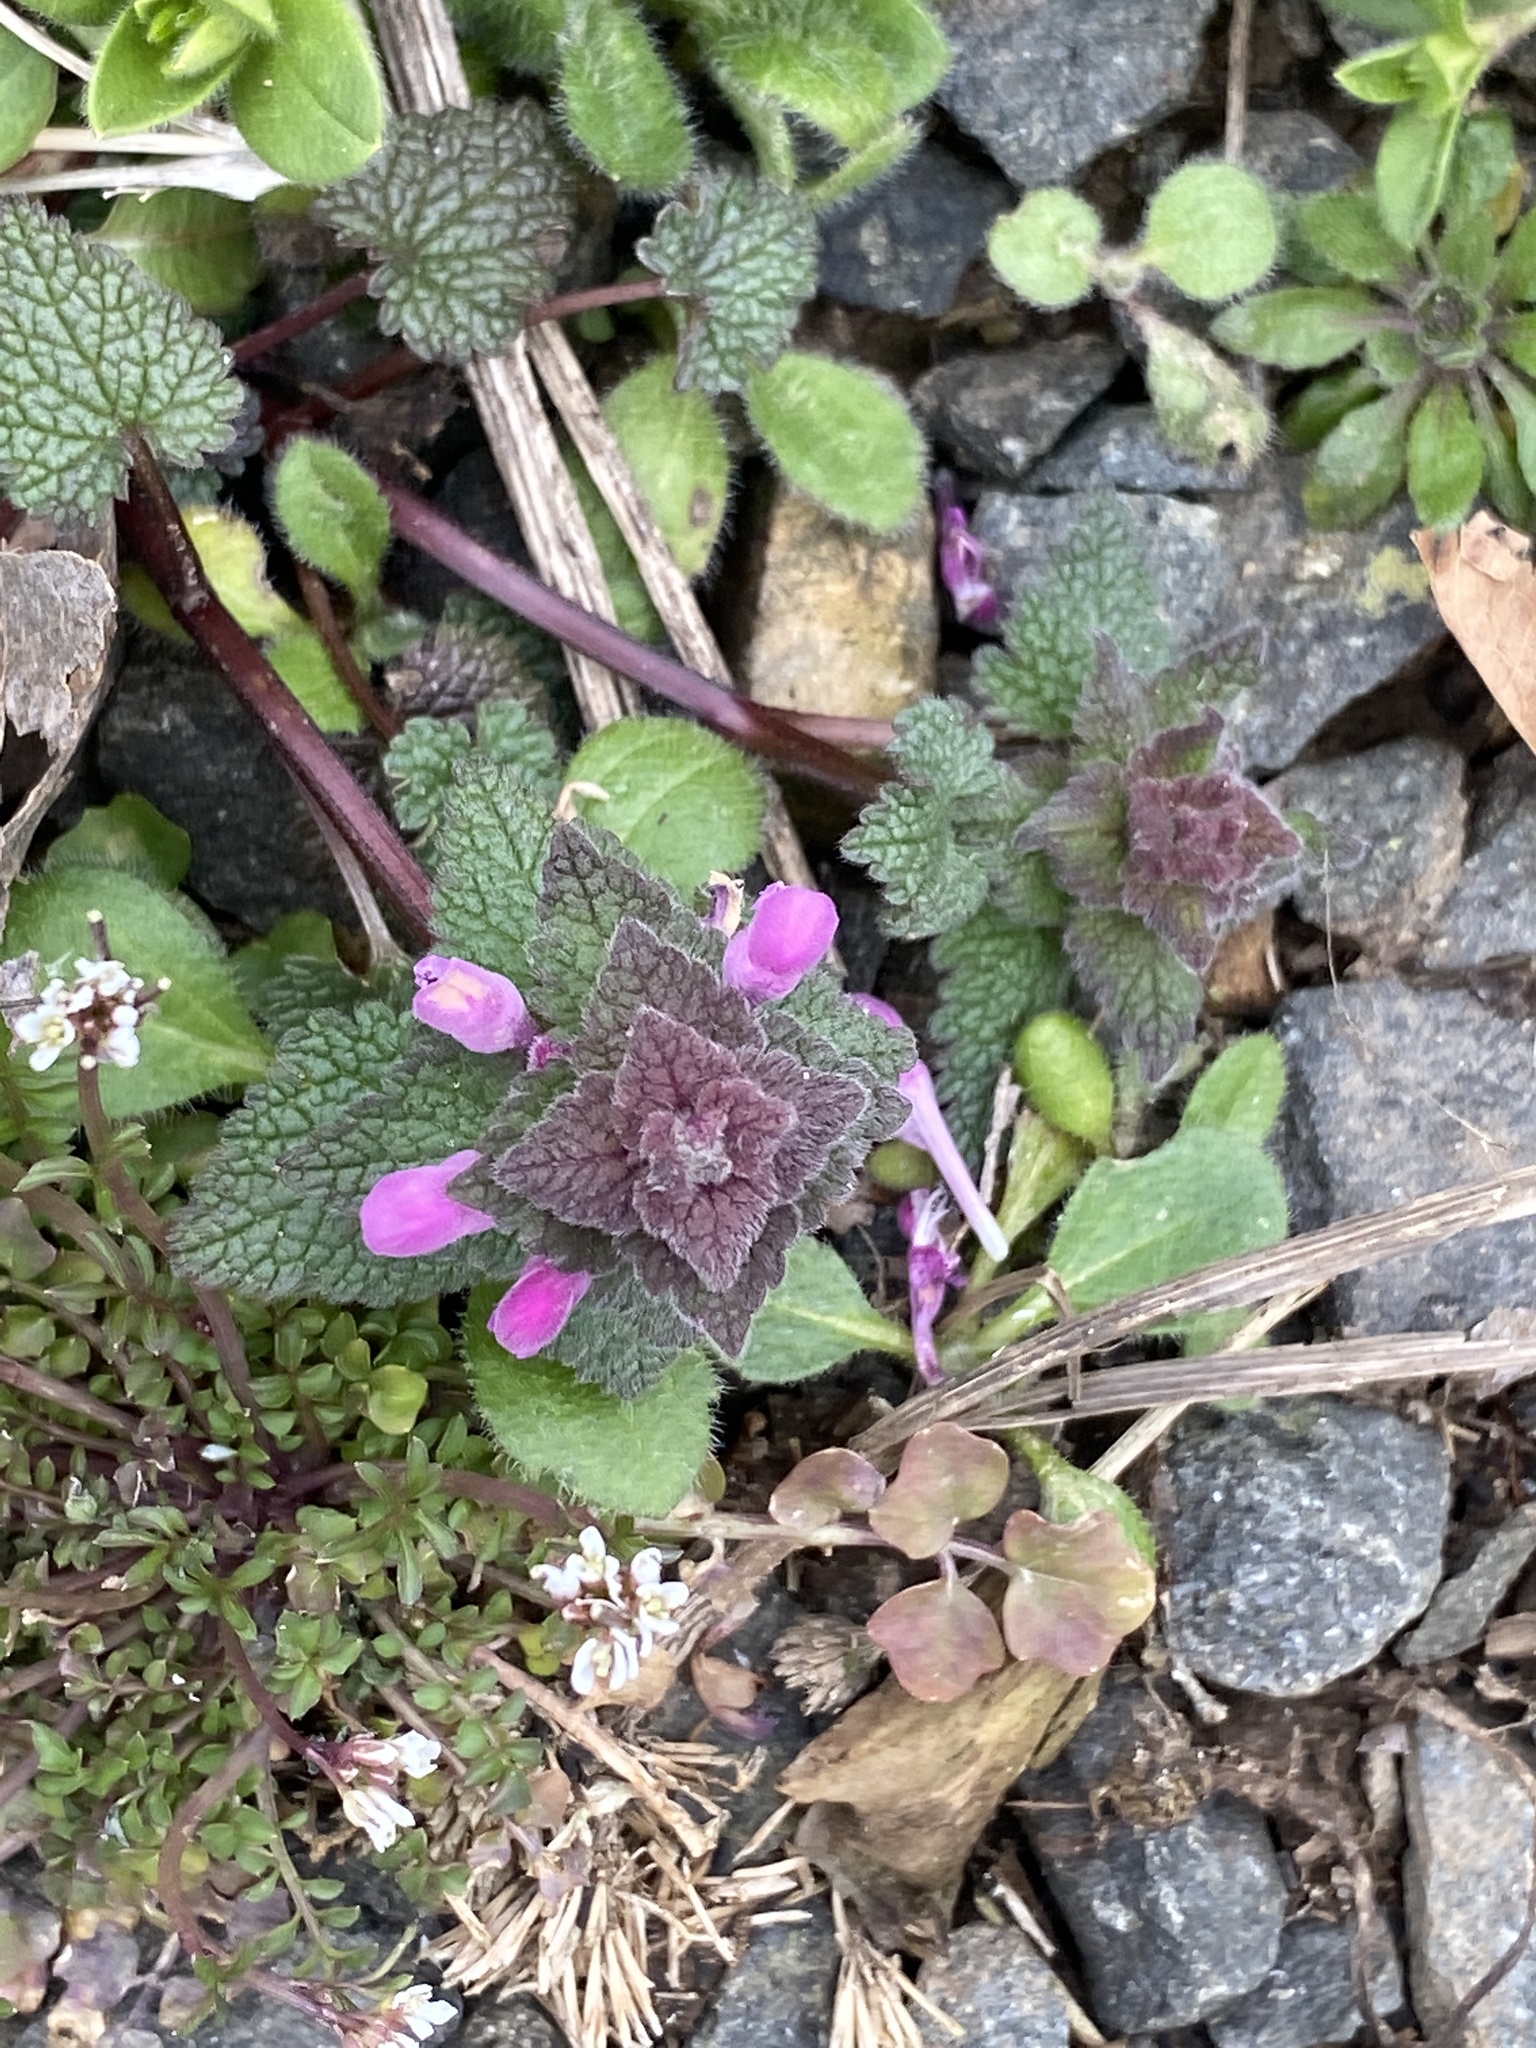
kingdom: Plantae
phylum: Tracheophyta
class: Magnoliopsida
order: Lamiales
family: Lamiaceae
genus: Lamium
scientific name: Lamium purpureum
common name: Red dead-nettle
